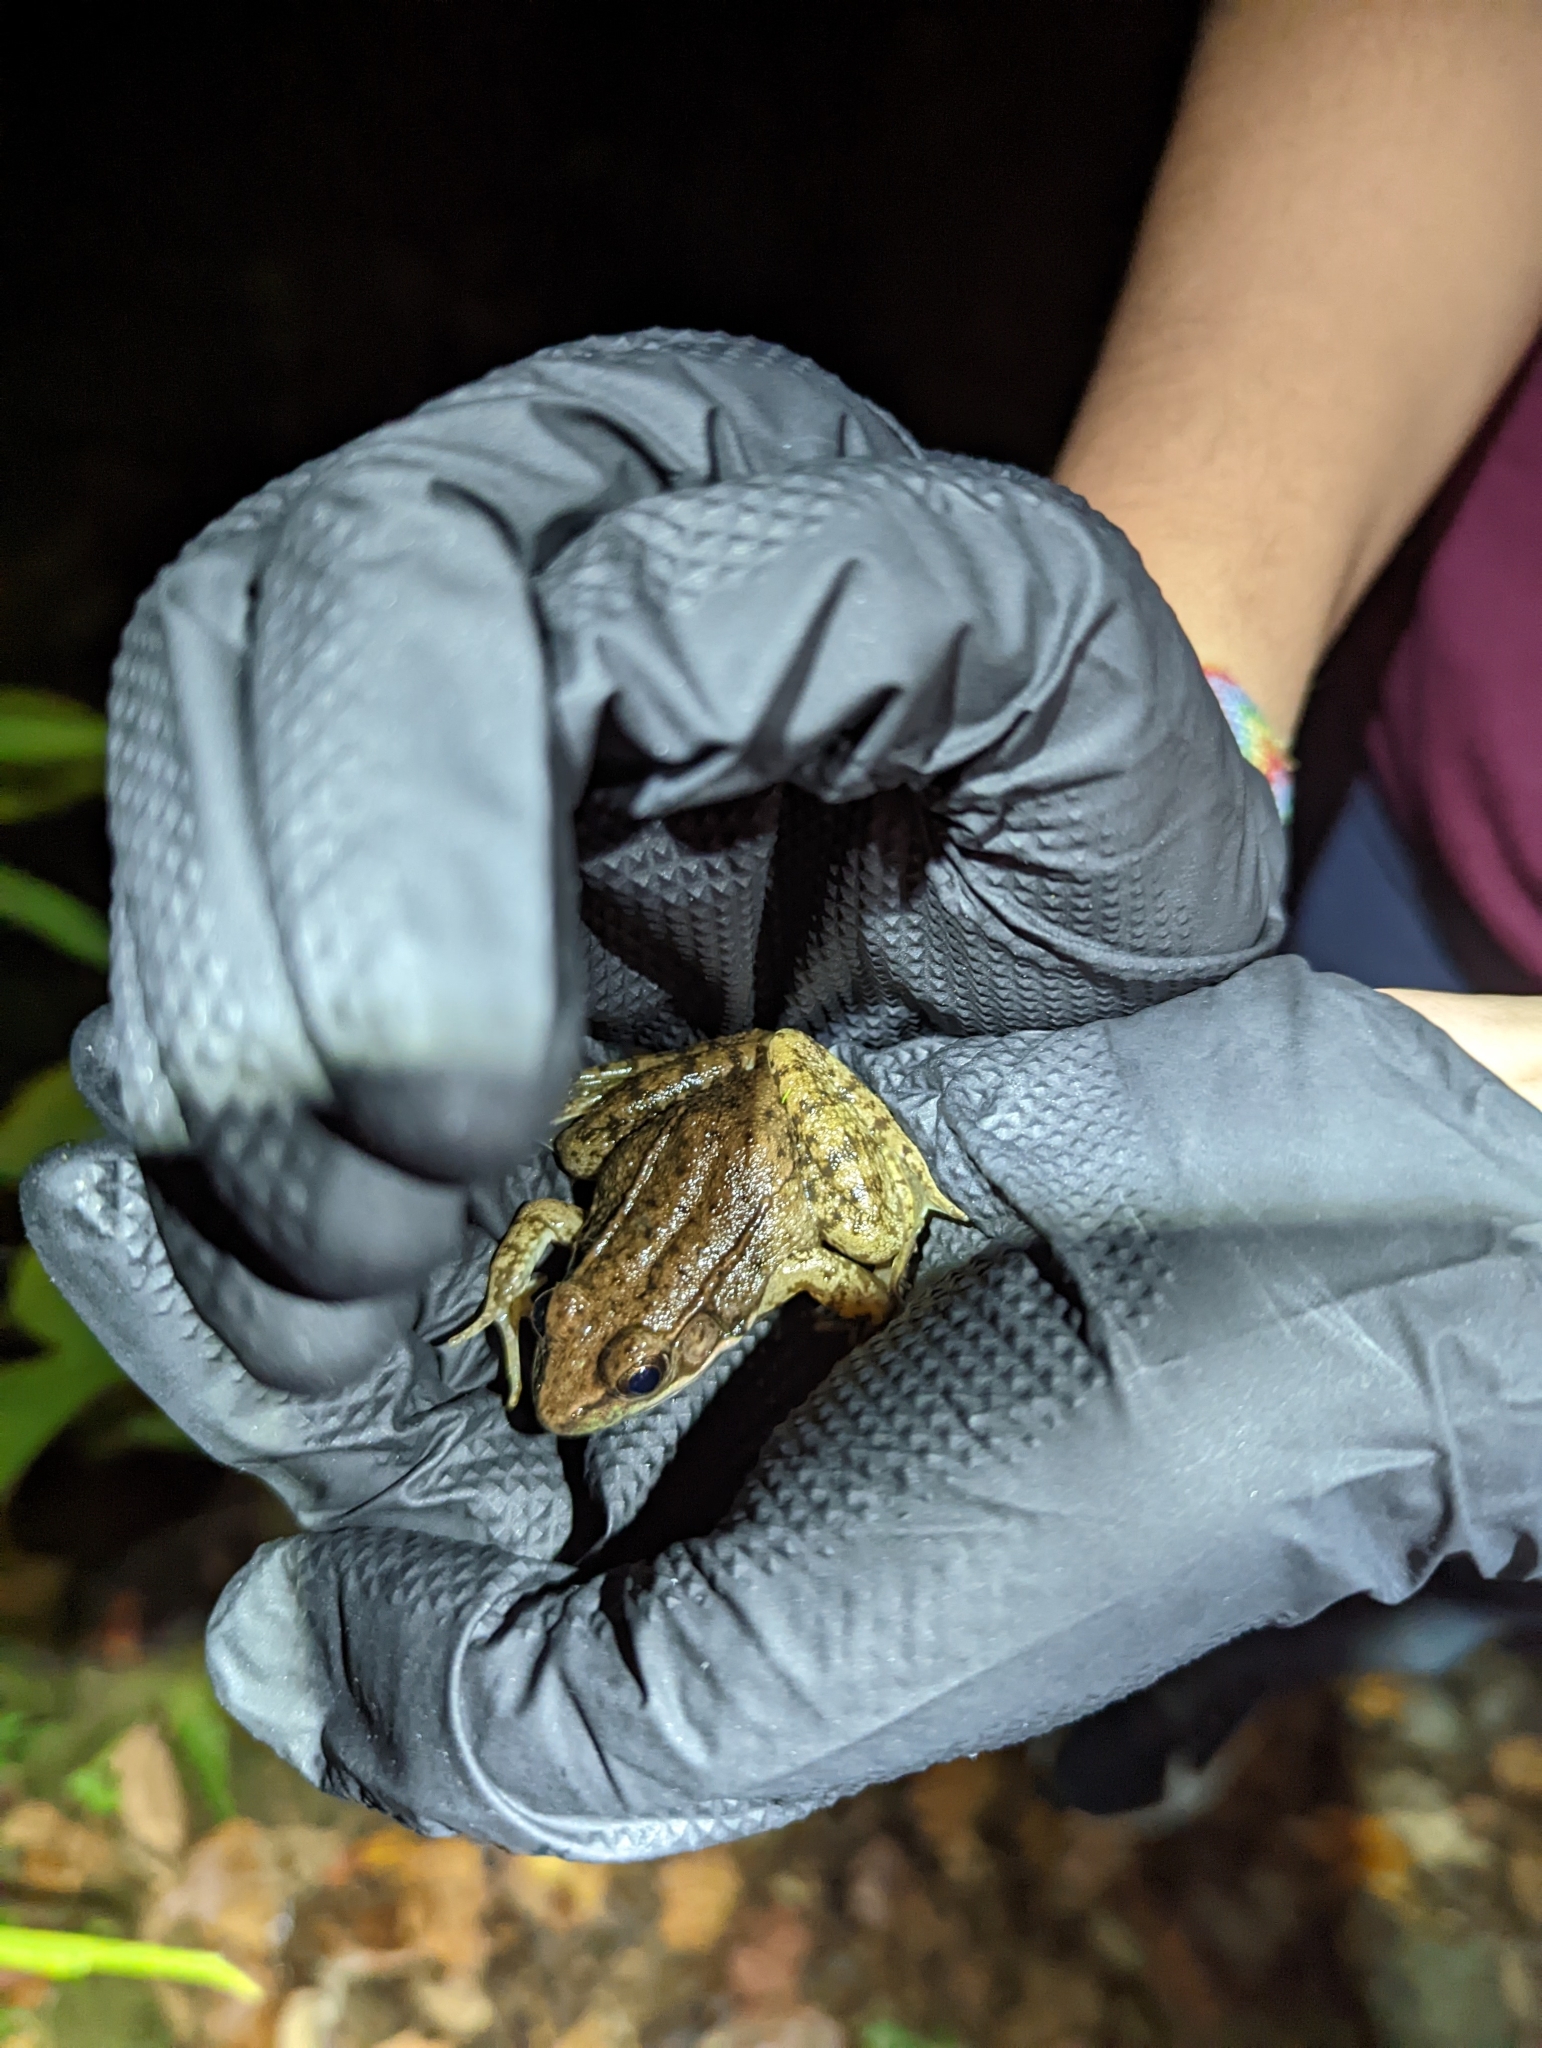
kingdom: Animalia
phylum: Chordata
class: Amphibia
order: Anura
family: Ranidae
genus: Lithobates
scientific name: Lithobates clamitans
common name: Green frog
